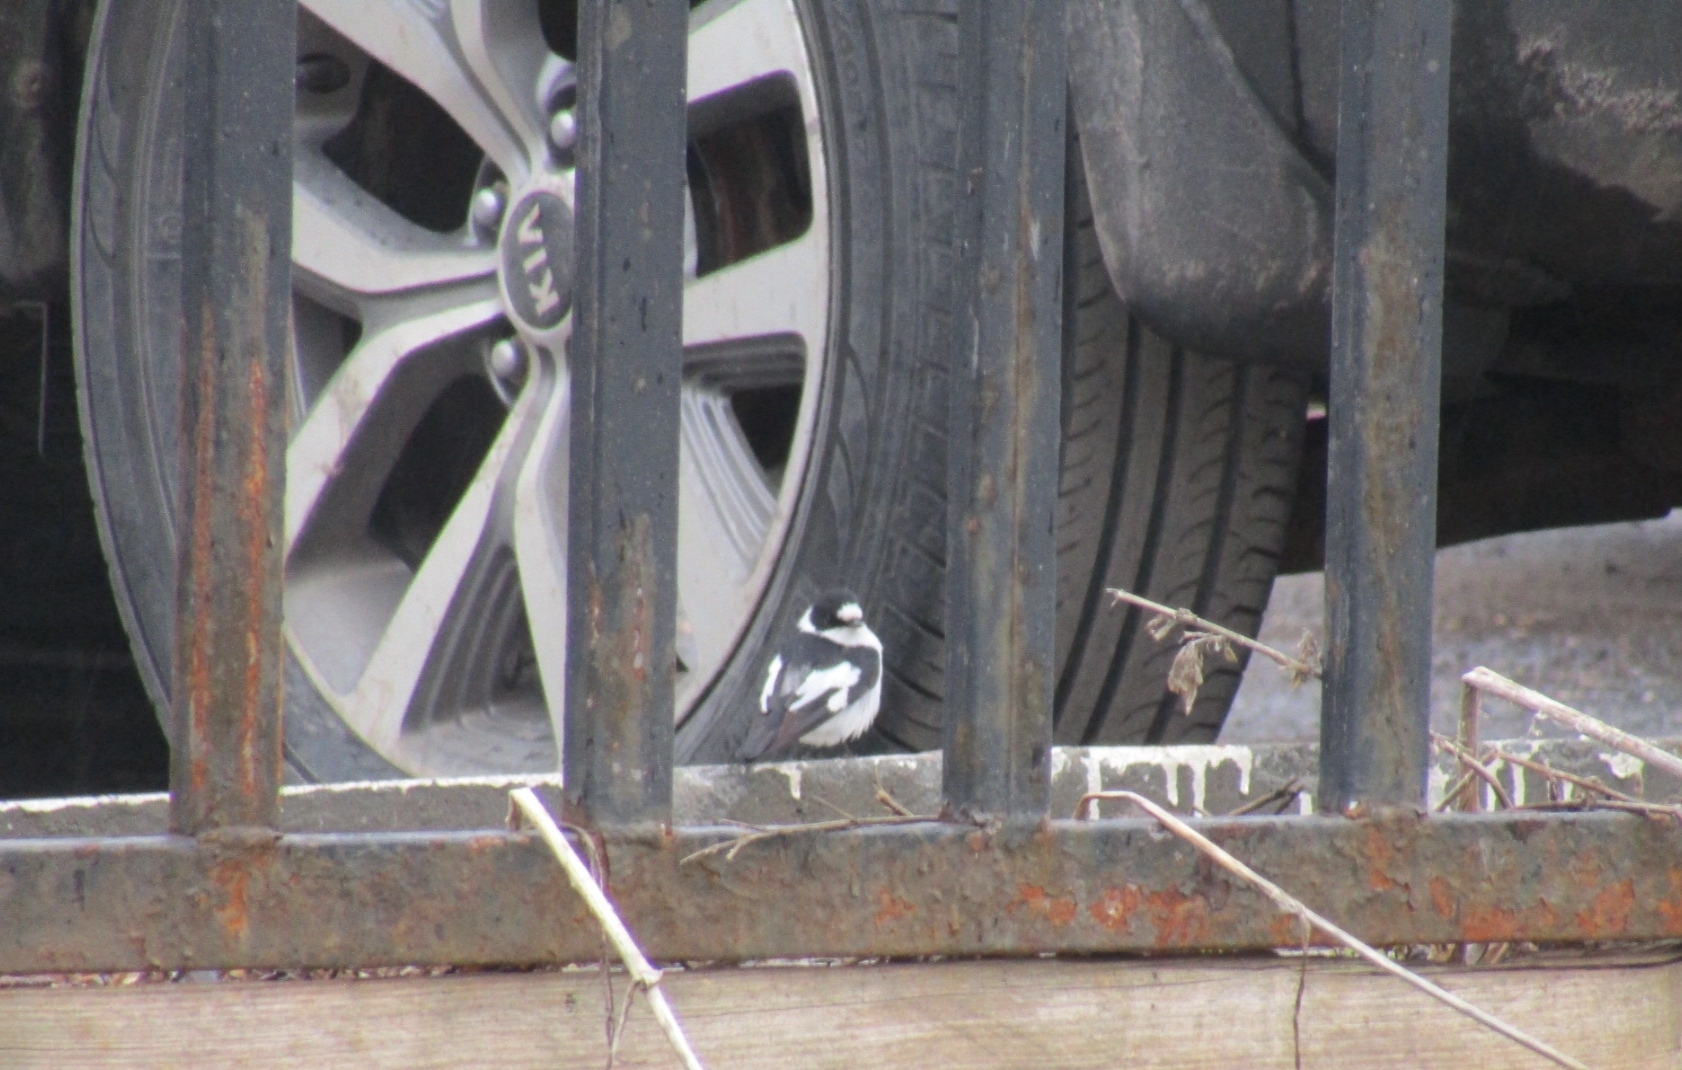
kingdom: Animalia
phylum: Chordata
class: Aves
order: Passeriformes
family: Muscicapidae
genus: Ficedula
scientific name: Ficedula albicollis
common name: Collared flycatcher
